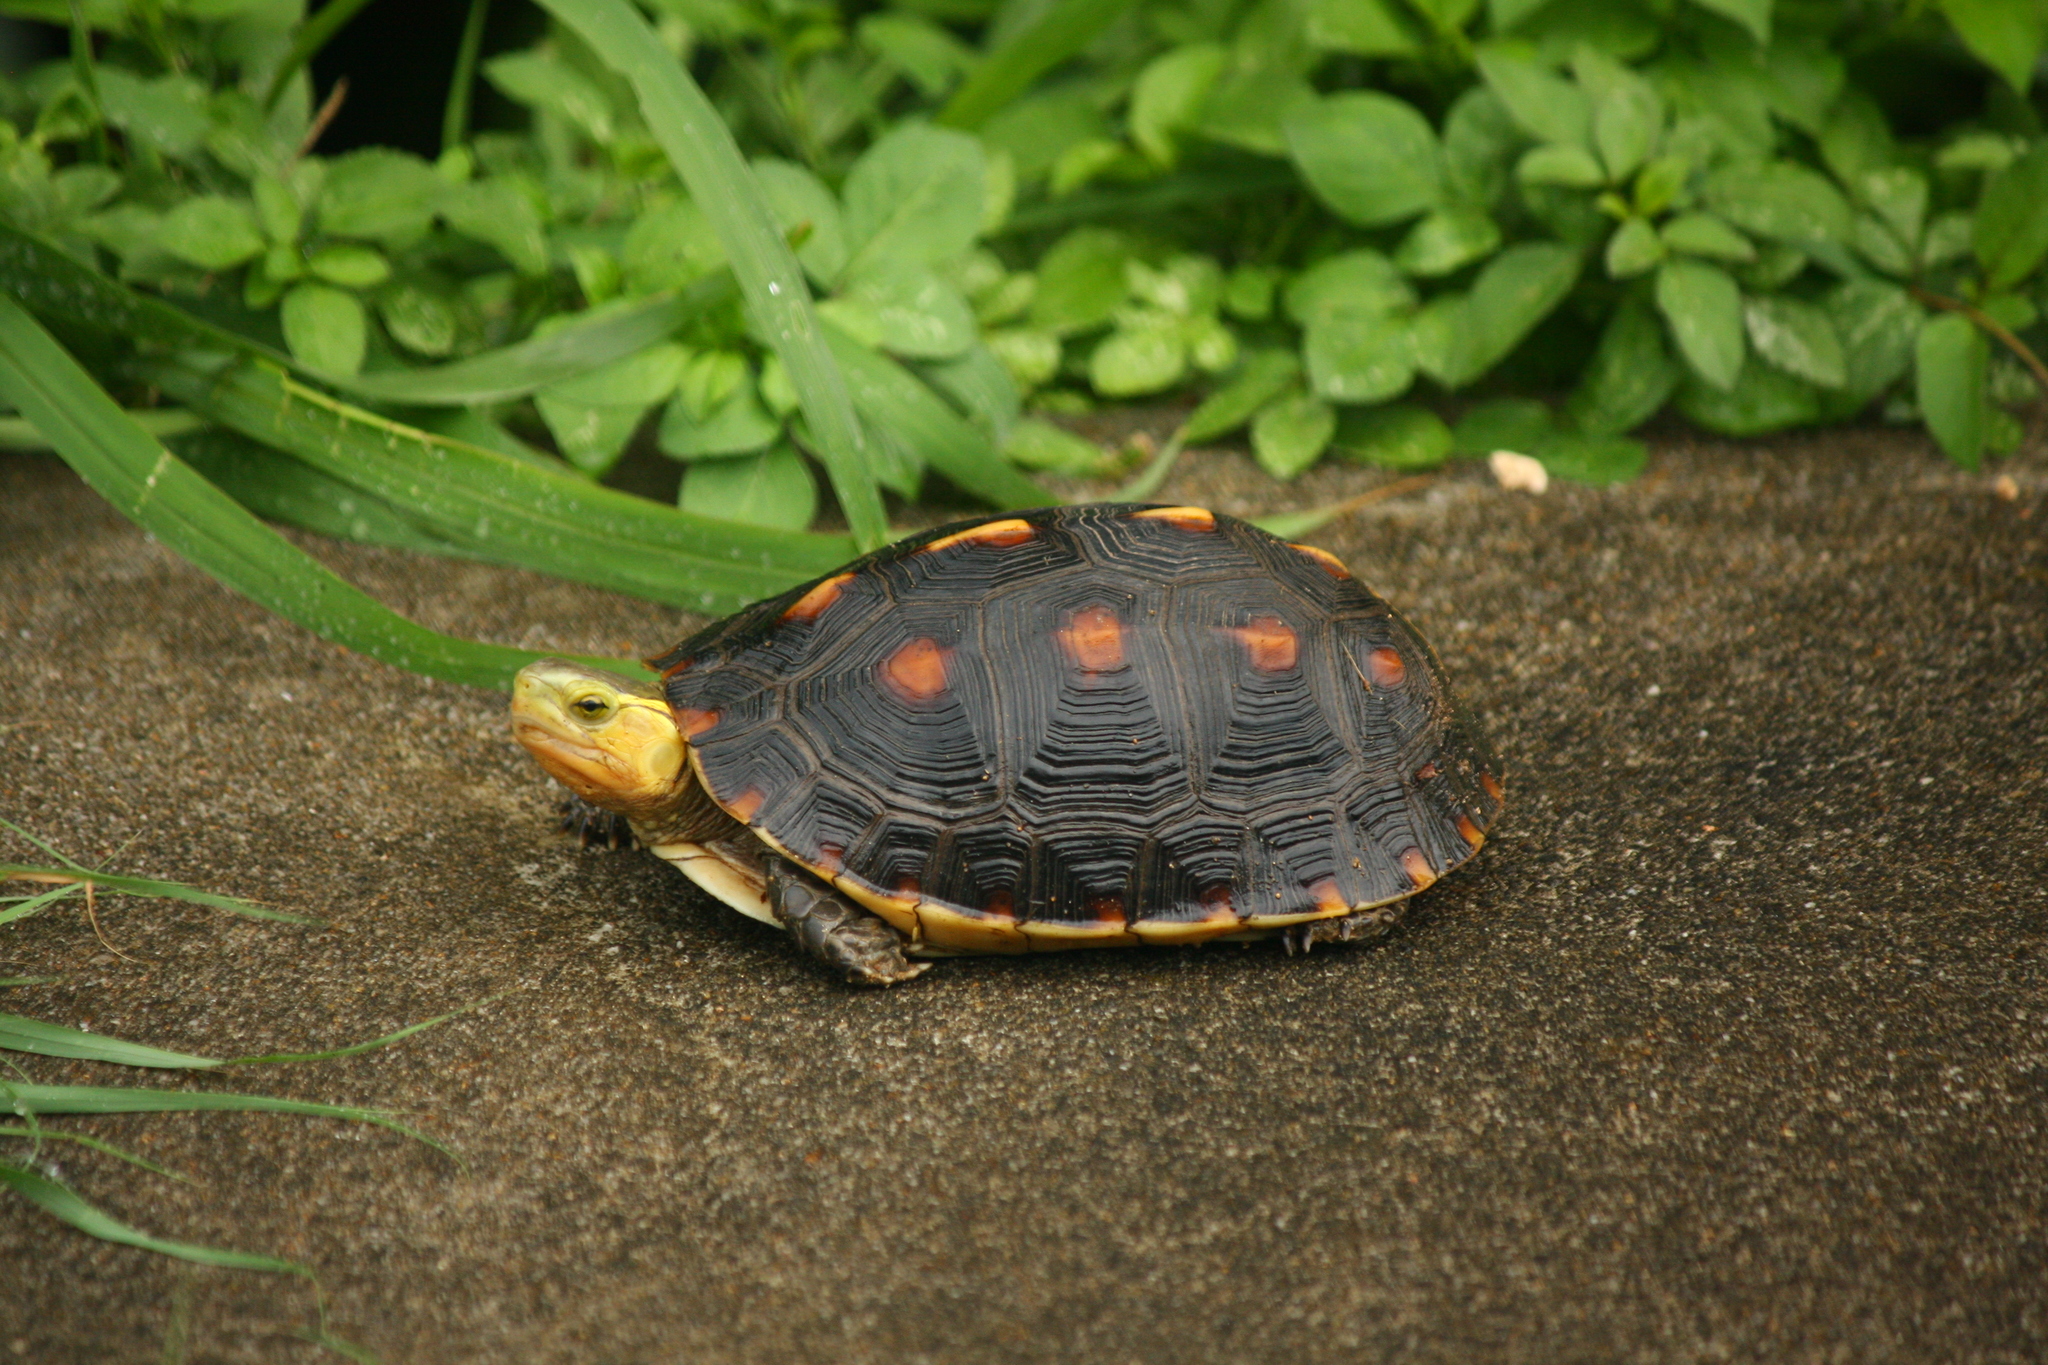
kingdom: Animalia
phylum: Chordata
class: Testudines
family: Geoemydidae
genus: Cuora
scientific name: Cuora flavomarginata
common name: Yellow-margined box turtle
